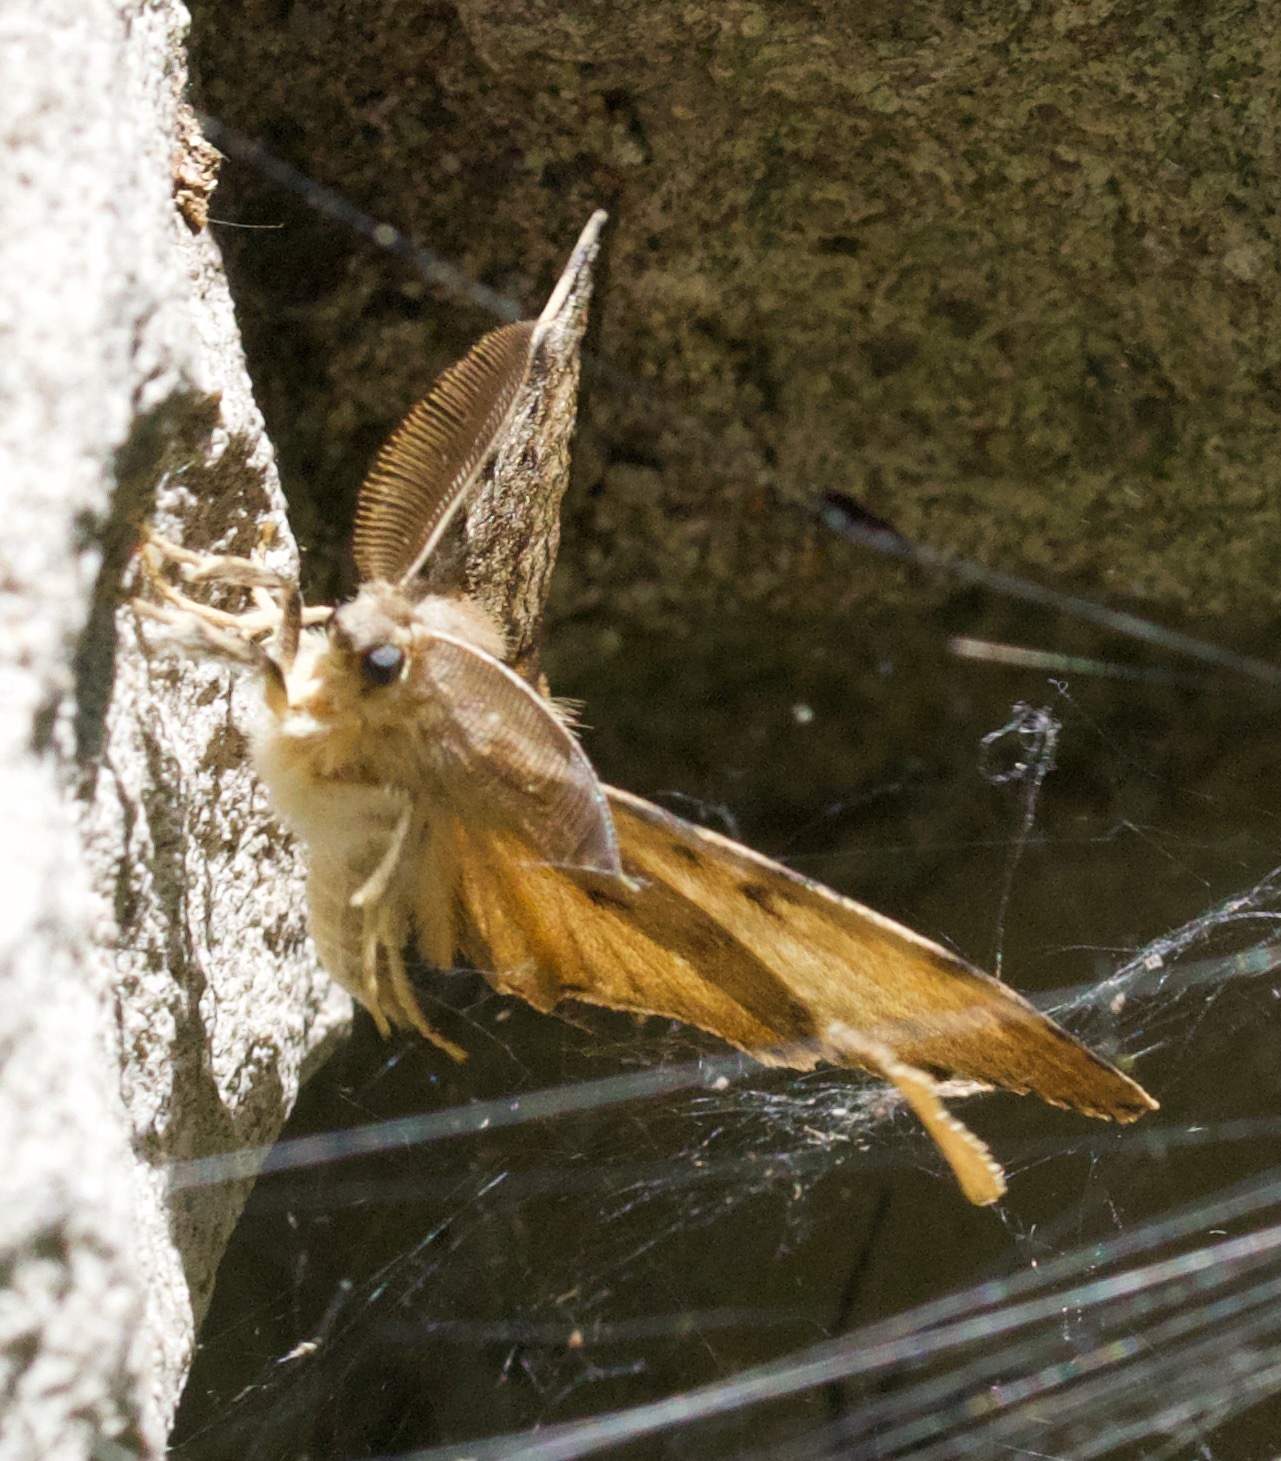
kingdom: Animalia
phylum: Arthropoda
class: Insecta
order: Lepidoptera
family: Erebidae
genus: Lymantria
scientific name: Lymantria dispar
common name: Gypsy moth
